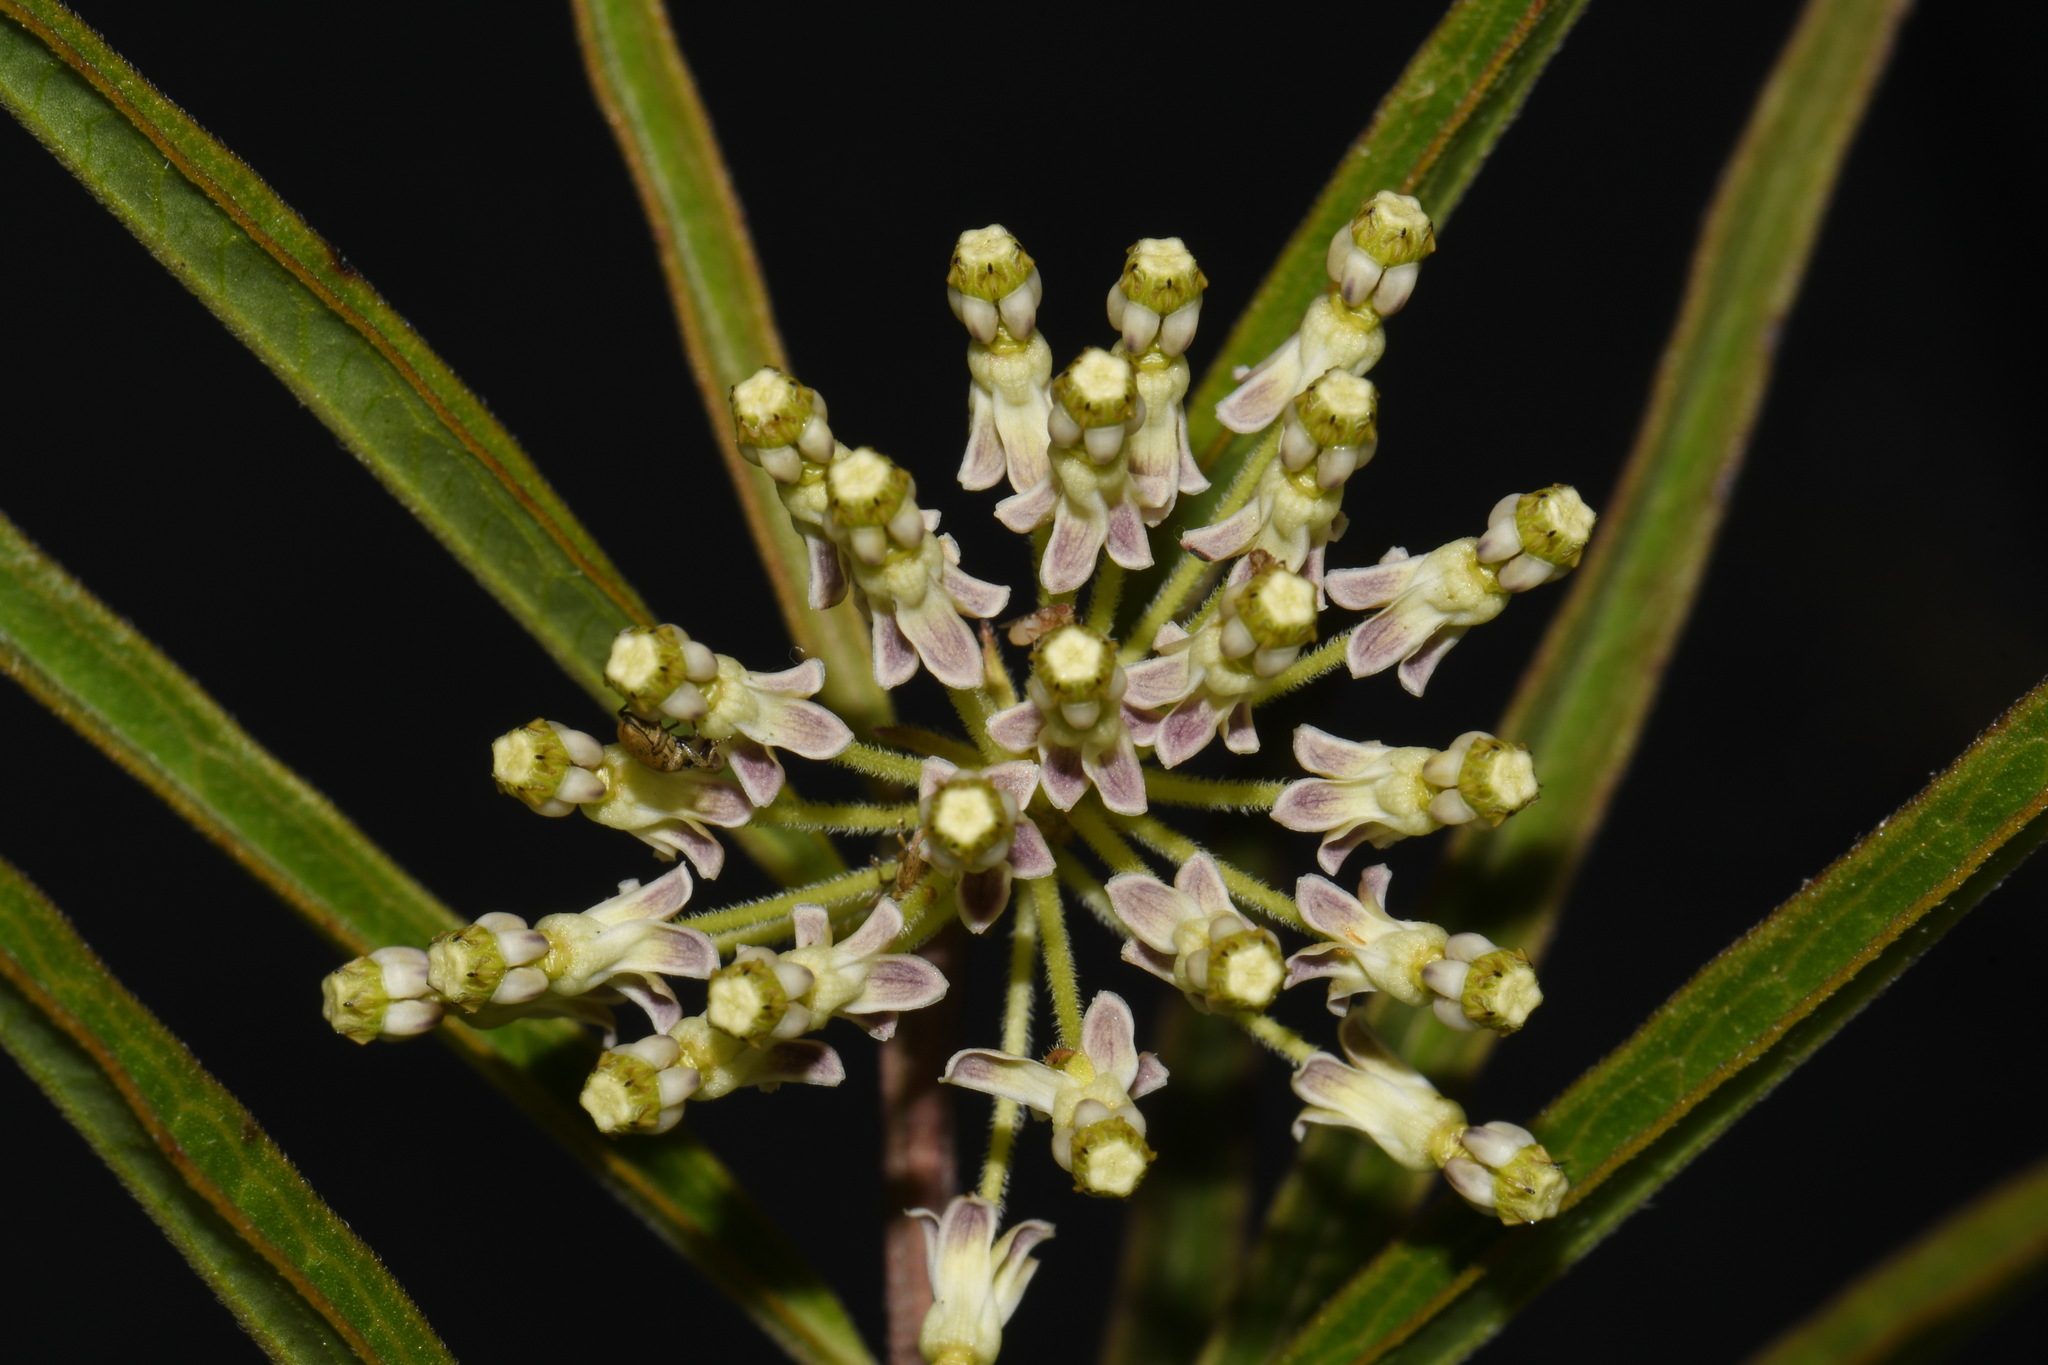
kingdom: Plantae
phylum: Tracheophyta
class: Magnoliopsida
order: Gentianales
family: Apocynaceae
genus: Asclepias
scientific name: Asclepias hirtella
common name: Prairie milkweed
